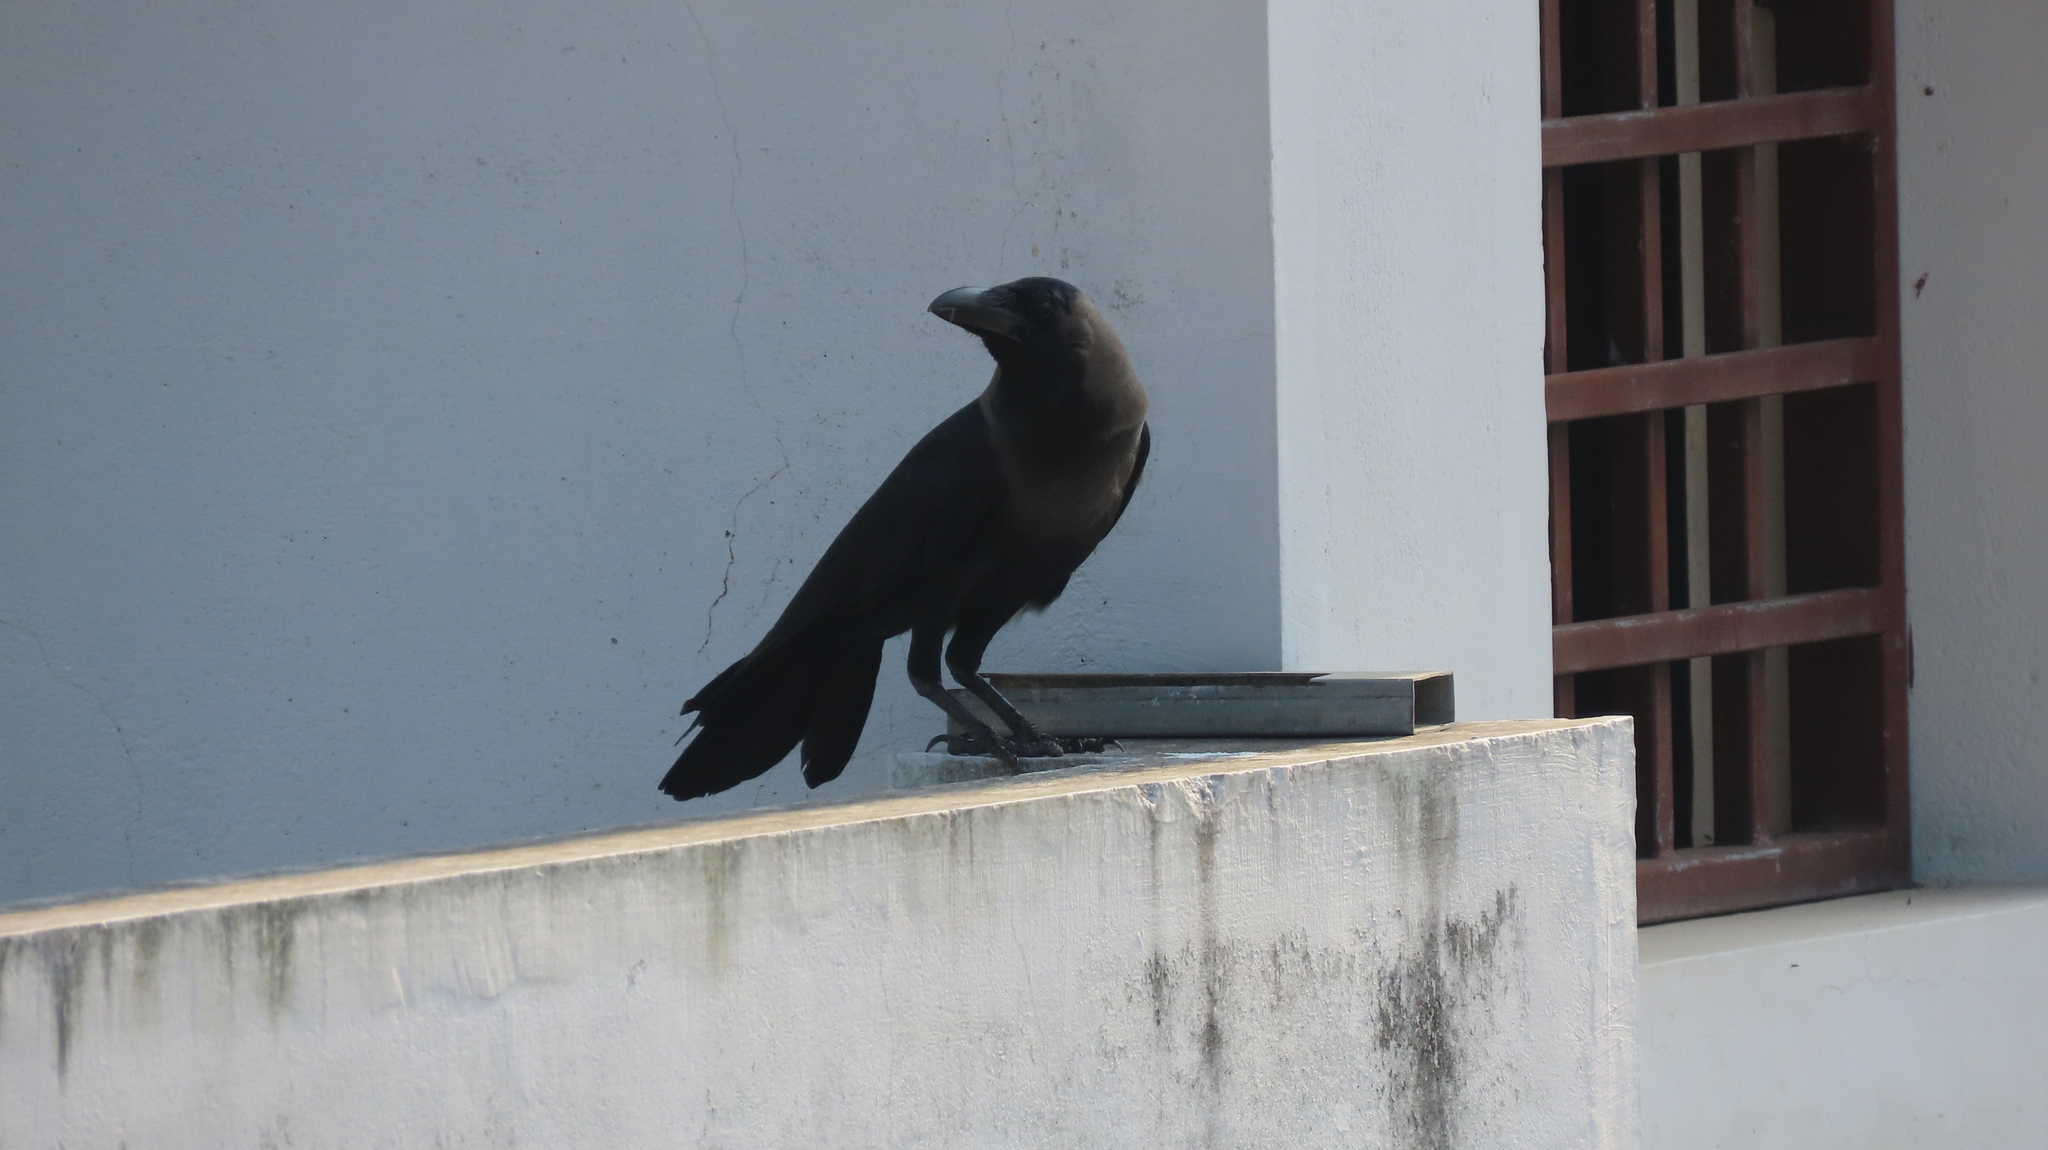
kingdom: Animalia
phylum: Chordata
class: Aves
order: Passeriformes
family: Corvidae
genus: Corvus
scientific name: Corvus splendens
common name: House crow
